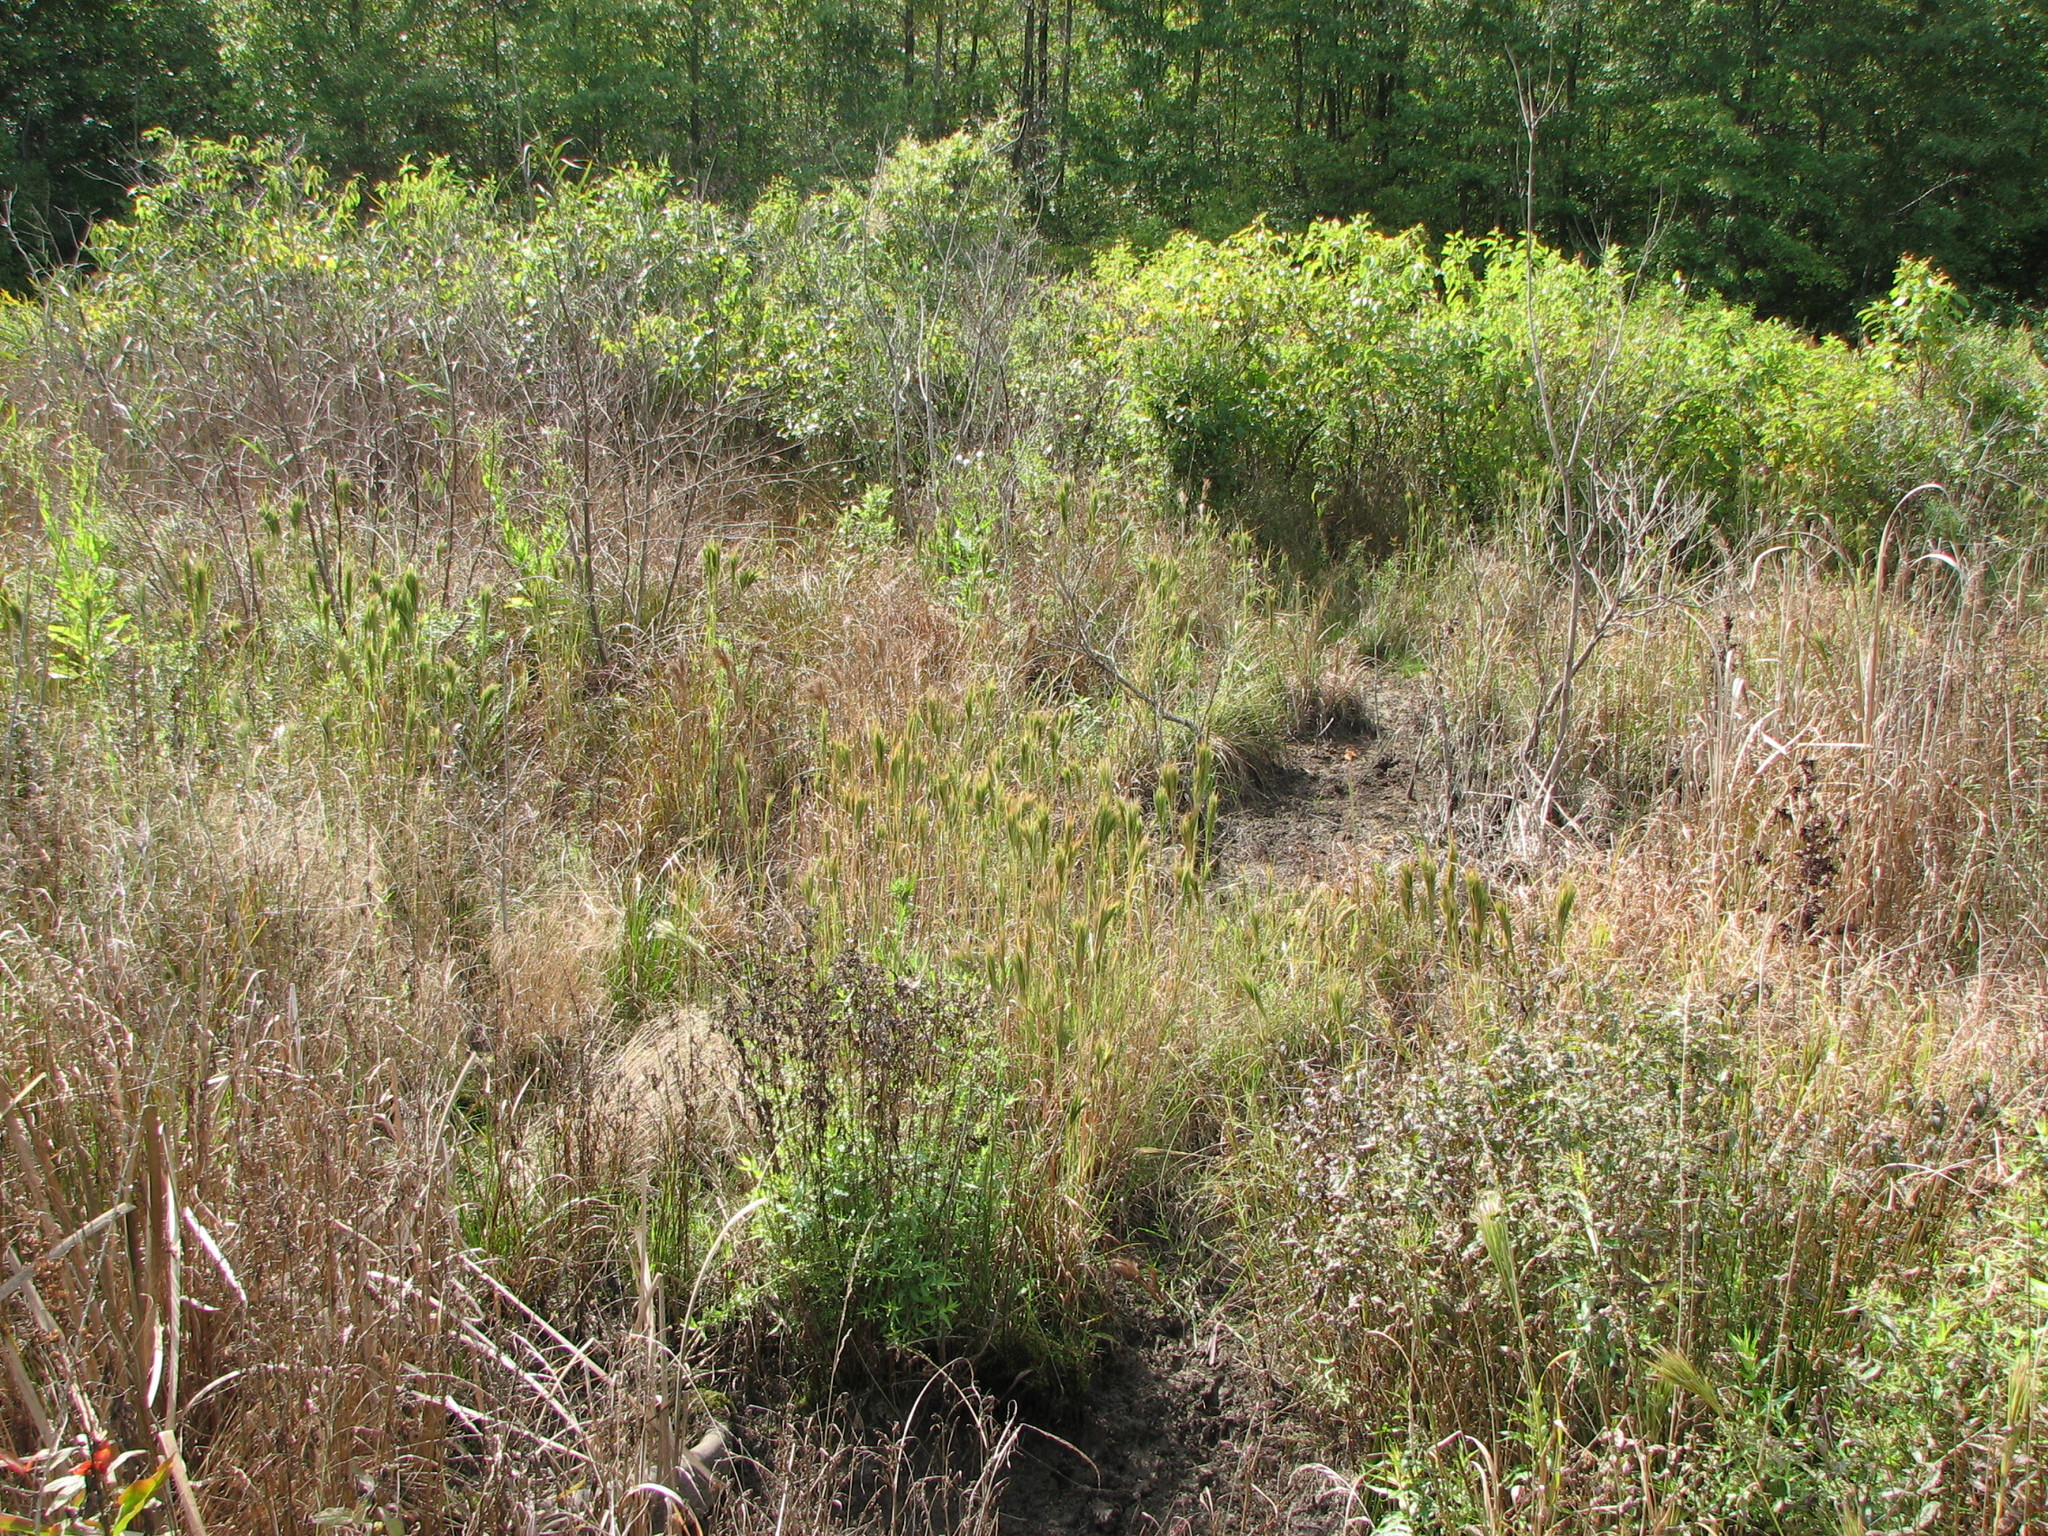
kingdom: Plantae
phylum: Tracheophyta
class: Liliopsida
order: Poales
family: Poaceae
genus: Andropogon
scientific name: Andropogon glomeratus
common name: Bushy beard grass
